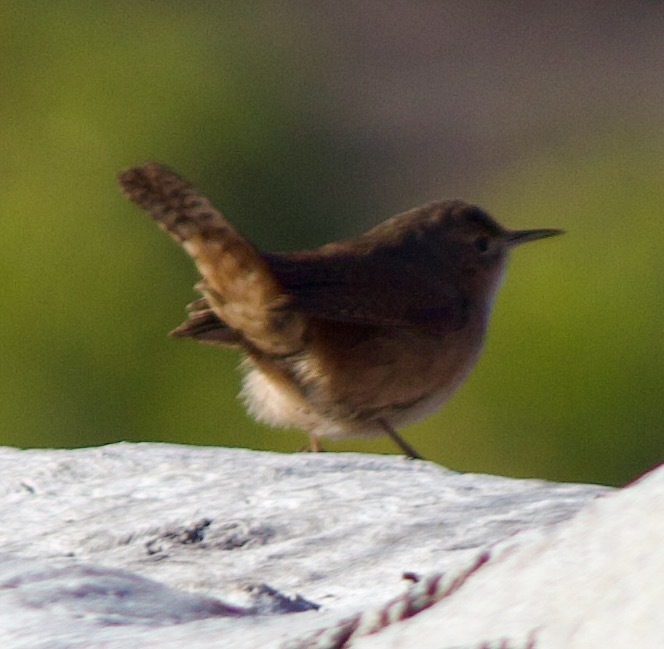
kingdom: Animalia
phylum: Chordata
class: Aves
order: Passeriformes
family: Troglodytidae
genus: Troglodytes
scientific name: Troglodytes aedon
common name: House wren
